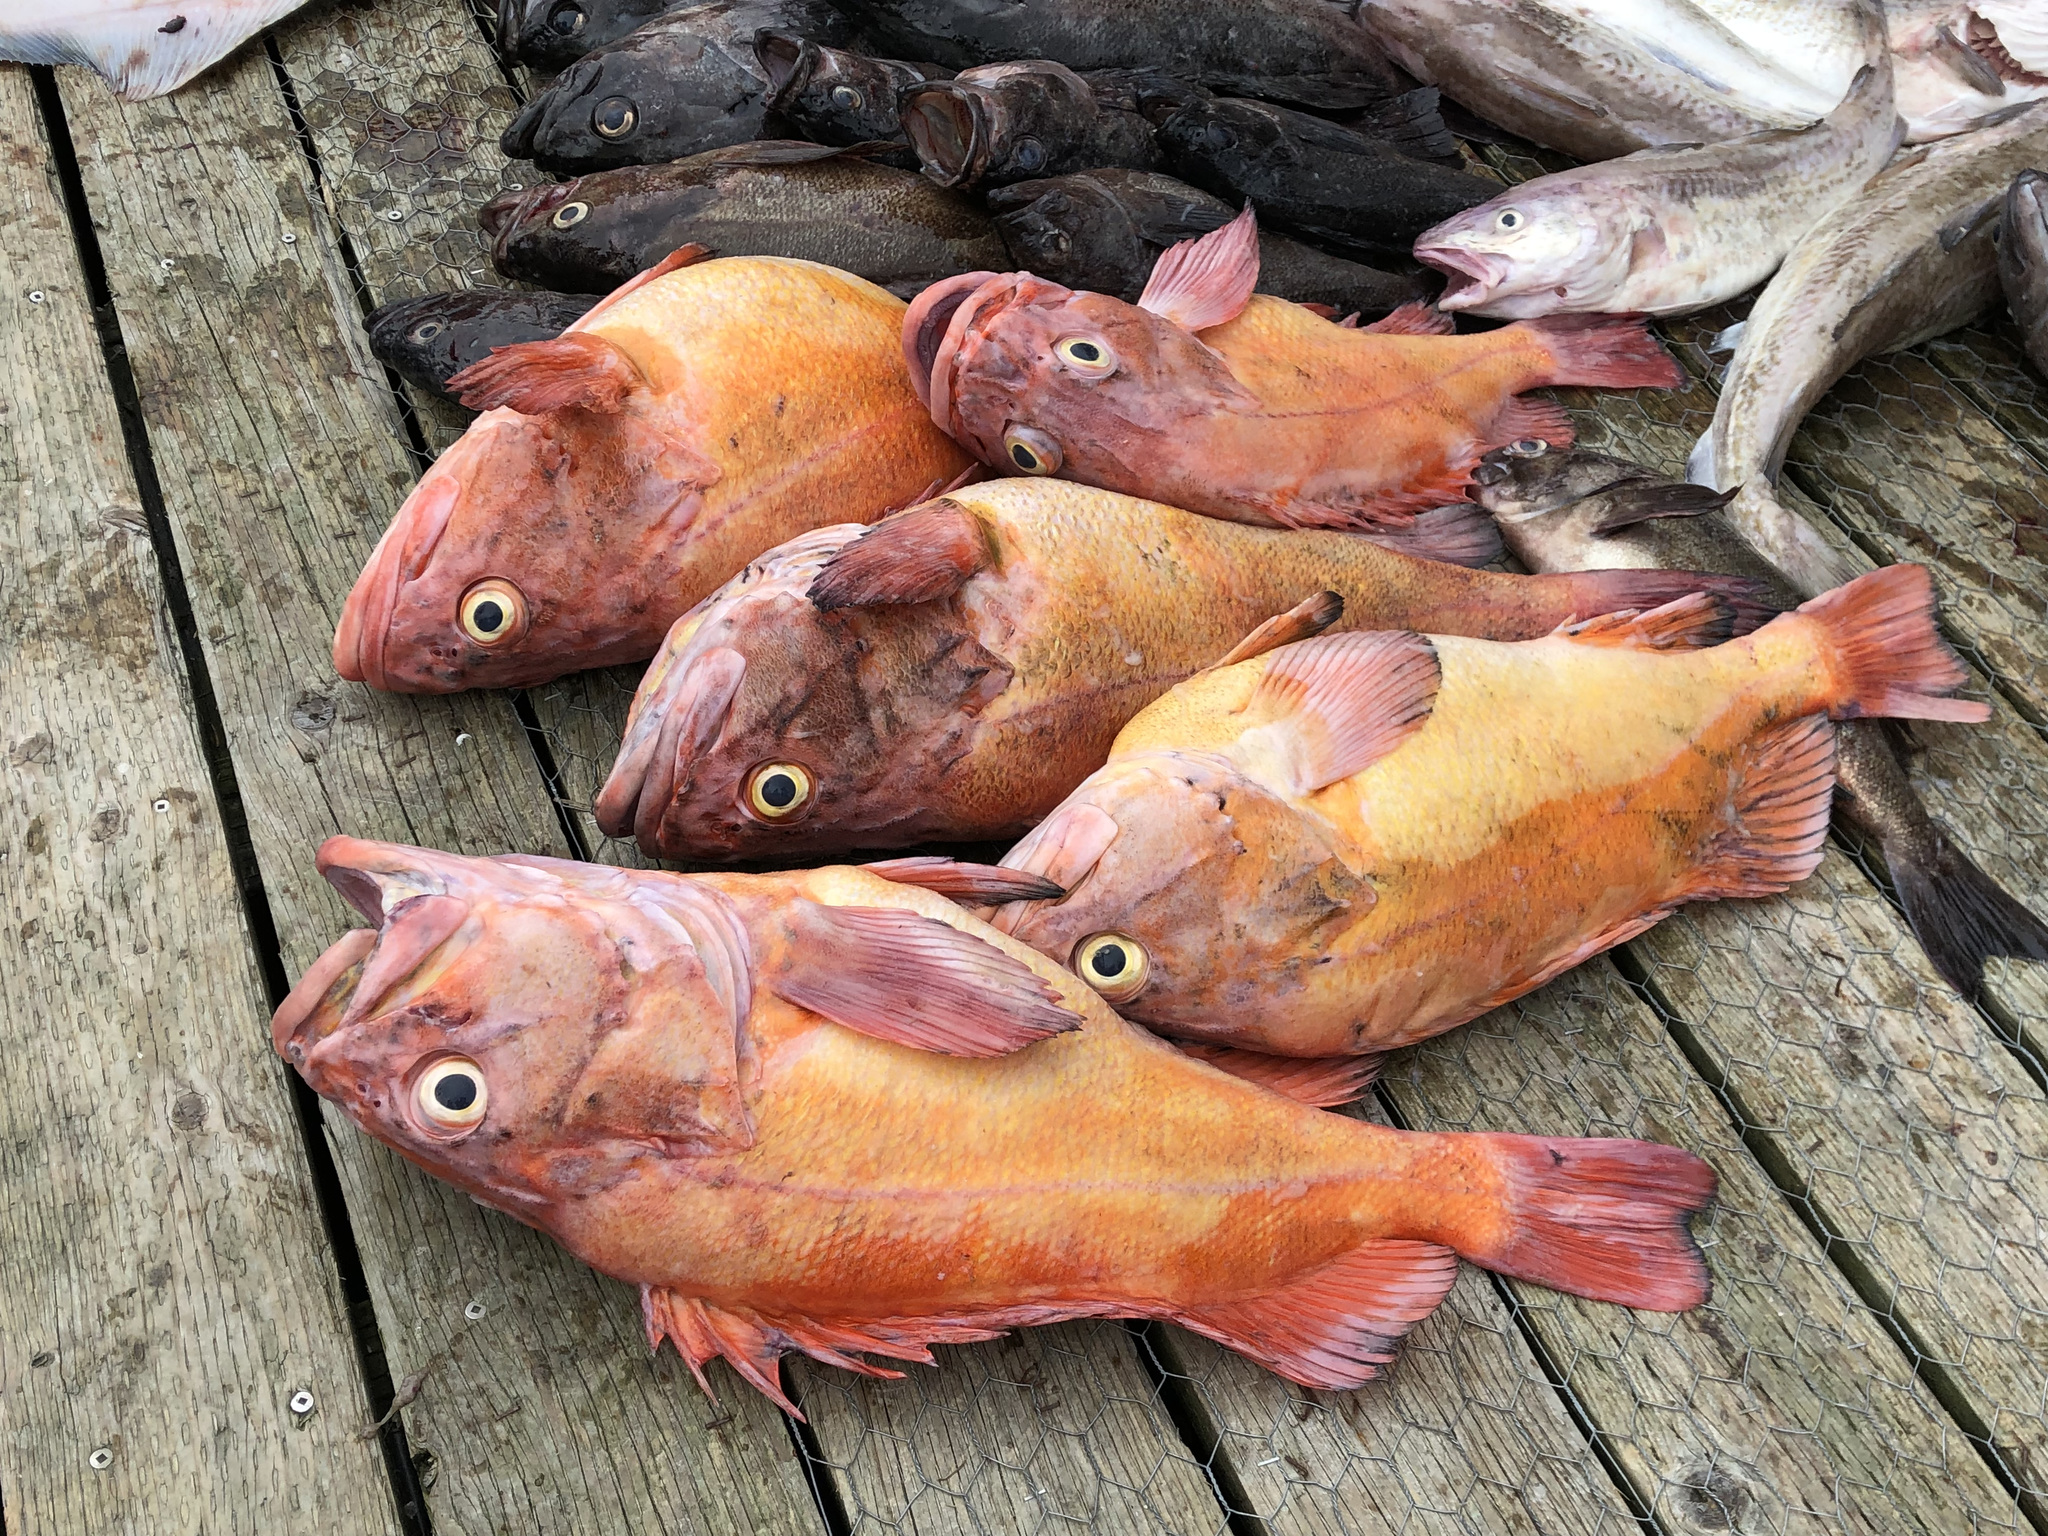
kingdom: Animalia
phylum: Chordata
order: Scorpaeniformes
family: Sebastidae
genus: Sebastes
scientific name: Sebastes ruberrimus
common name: Yelloweye rockfish
